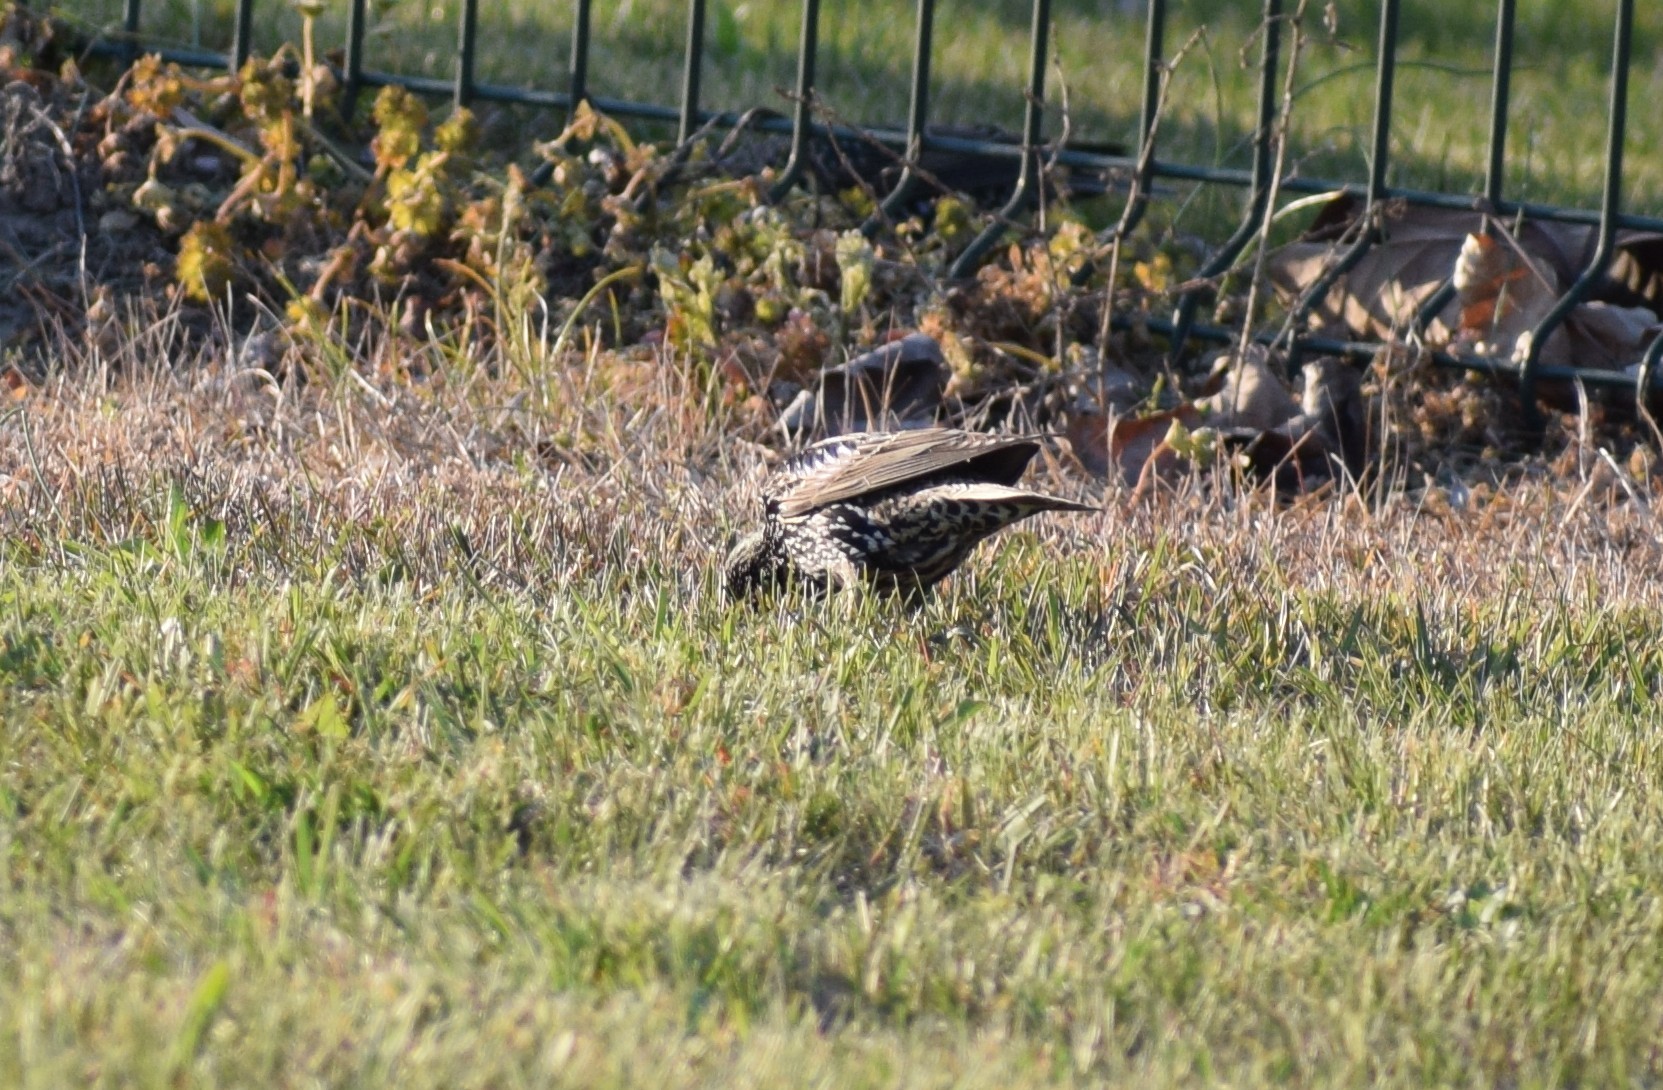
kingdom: Animalia
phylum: Chordata
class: Aves
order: Passeriformes
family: Sturnidae
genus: Sturnus
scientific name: Sturnus vulgaris
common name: Common starling
